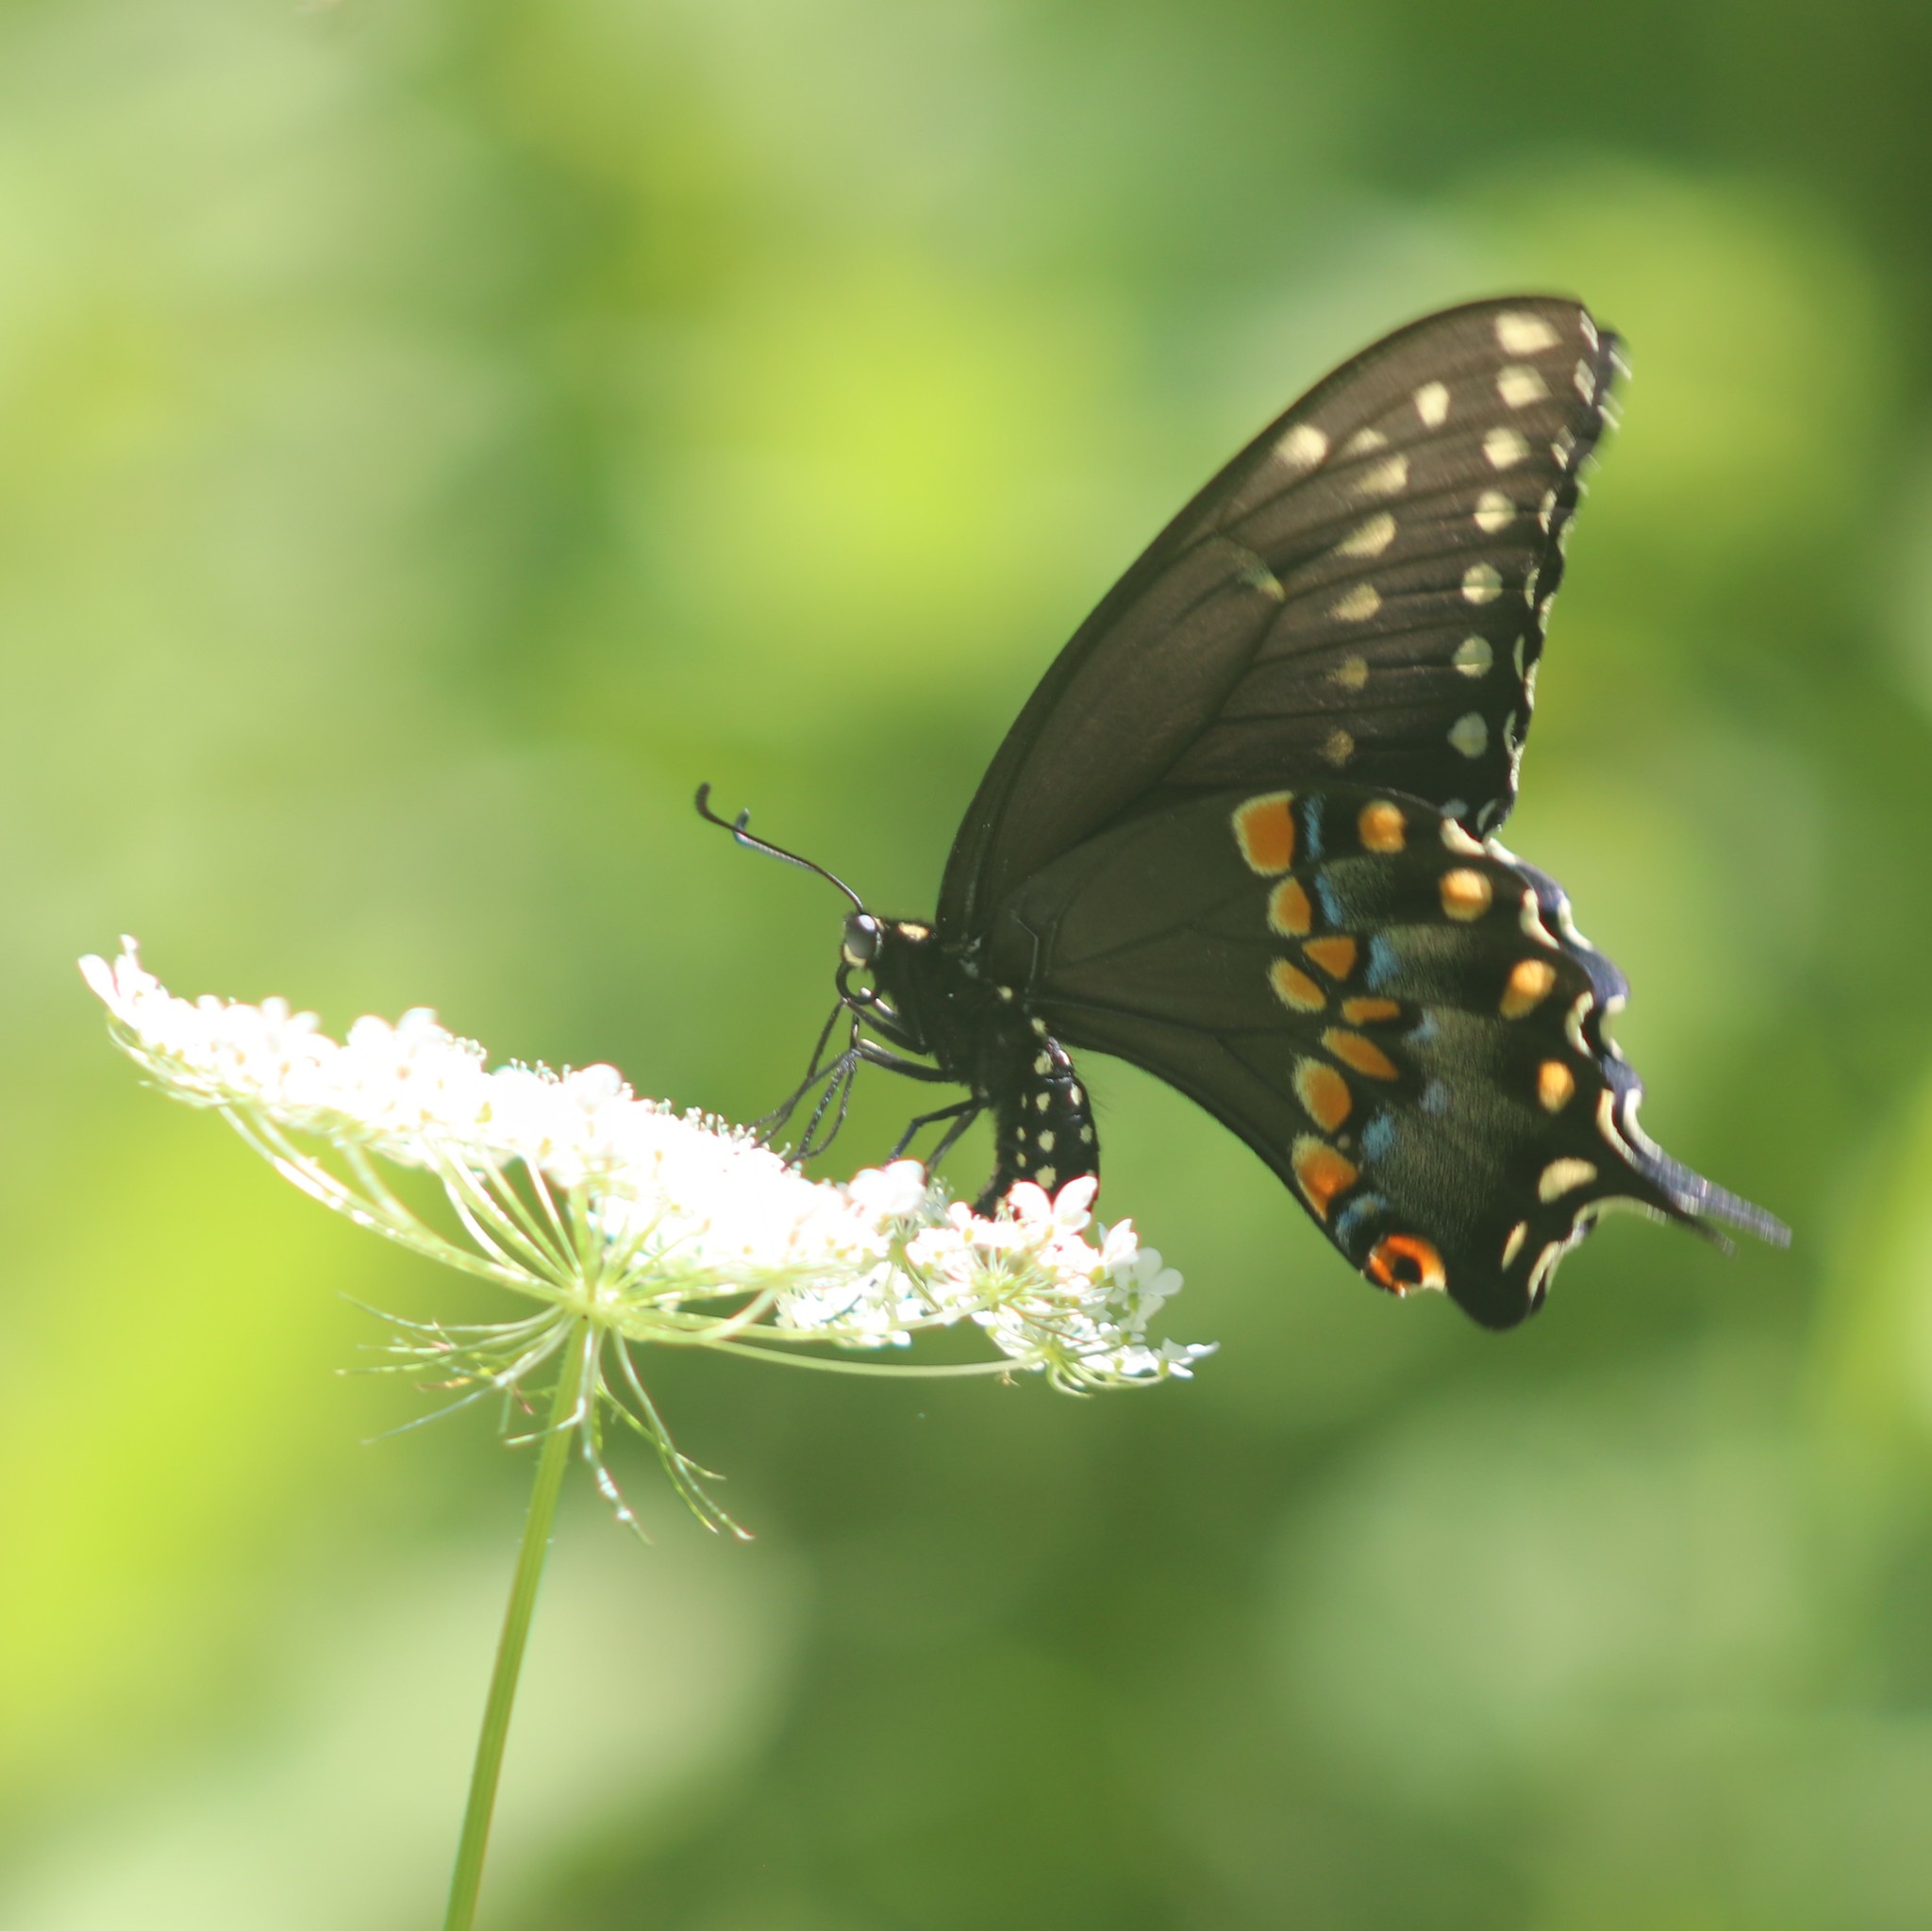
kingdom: Animalia
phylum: Arthropoda
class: Insecta
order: Lepidoptera
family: Papilionidae
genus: Papilio
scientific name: Papilio polyxenes
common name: Black swallowtail
